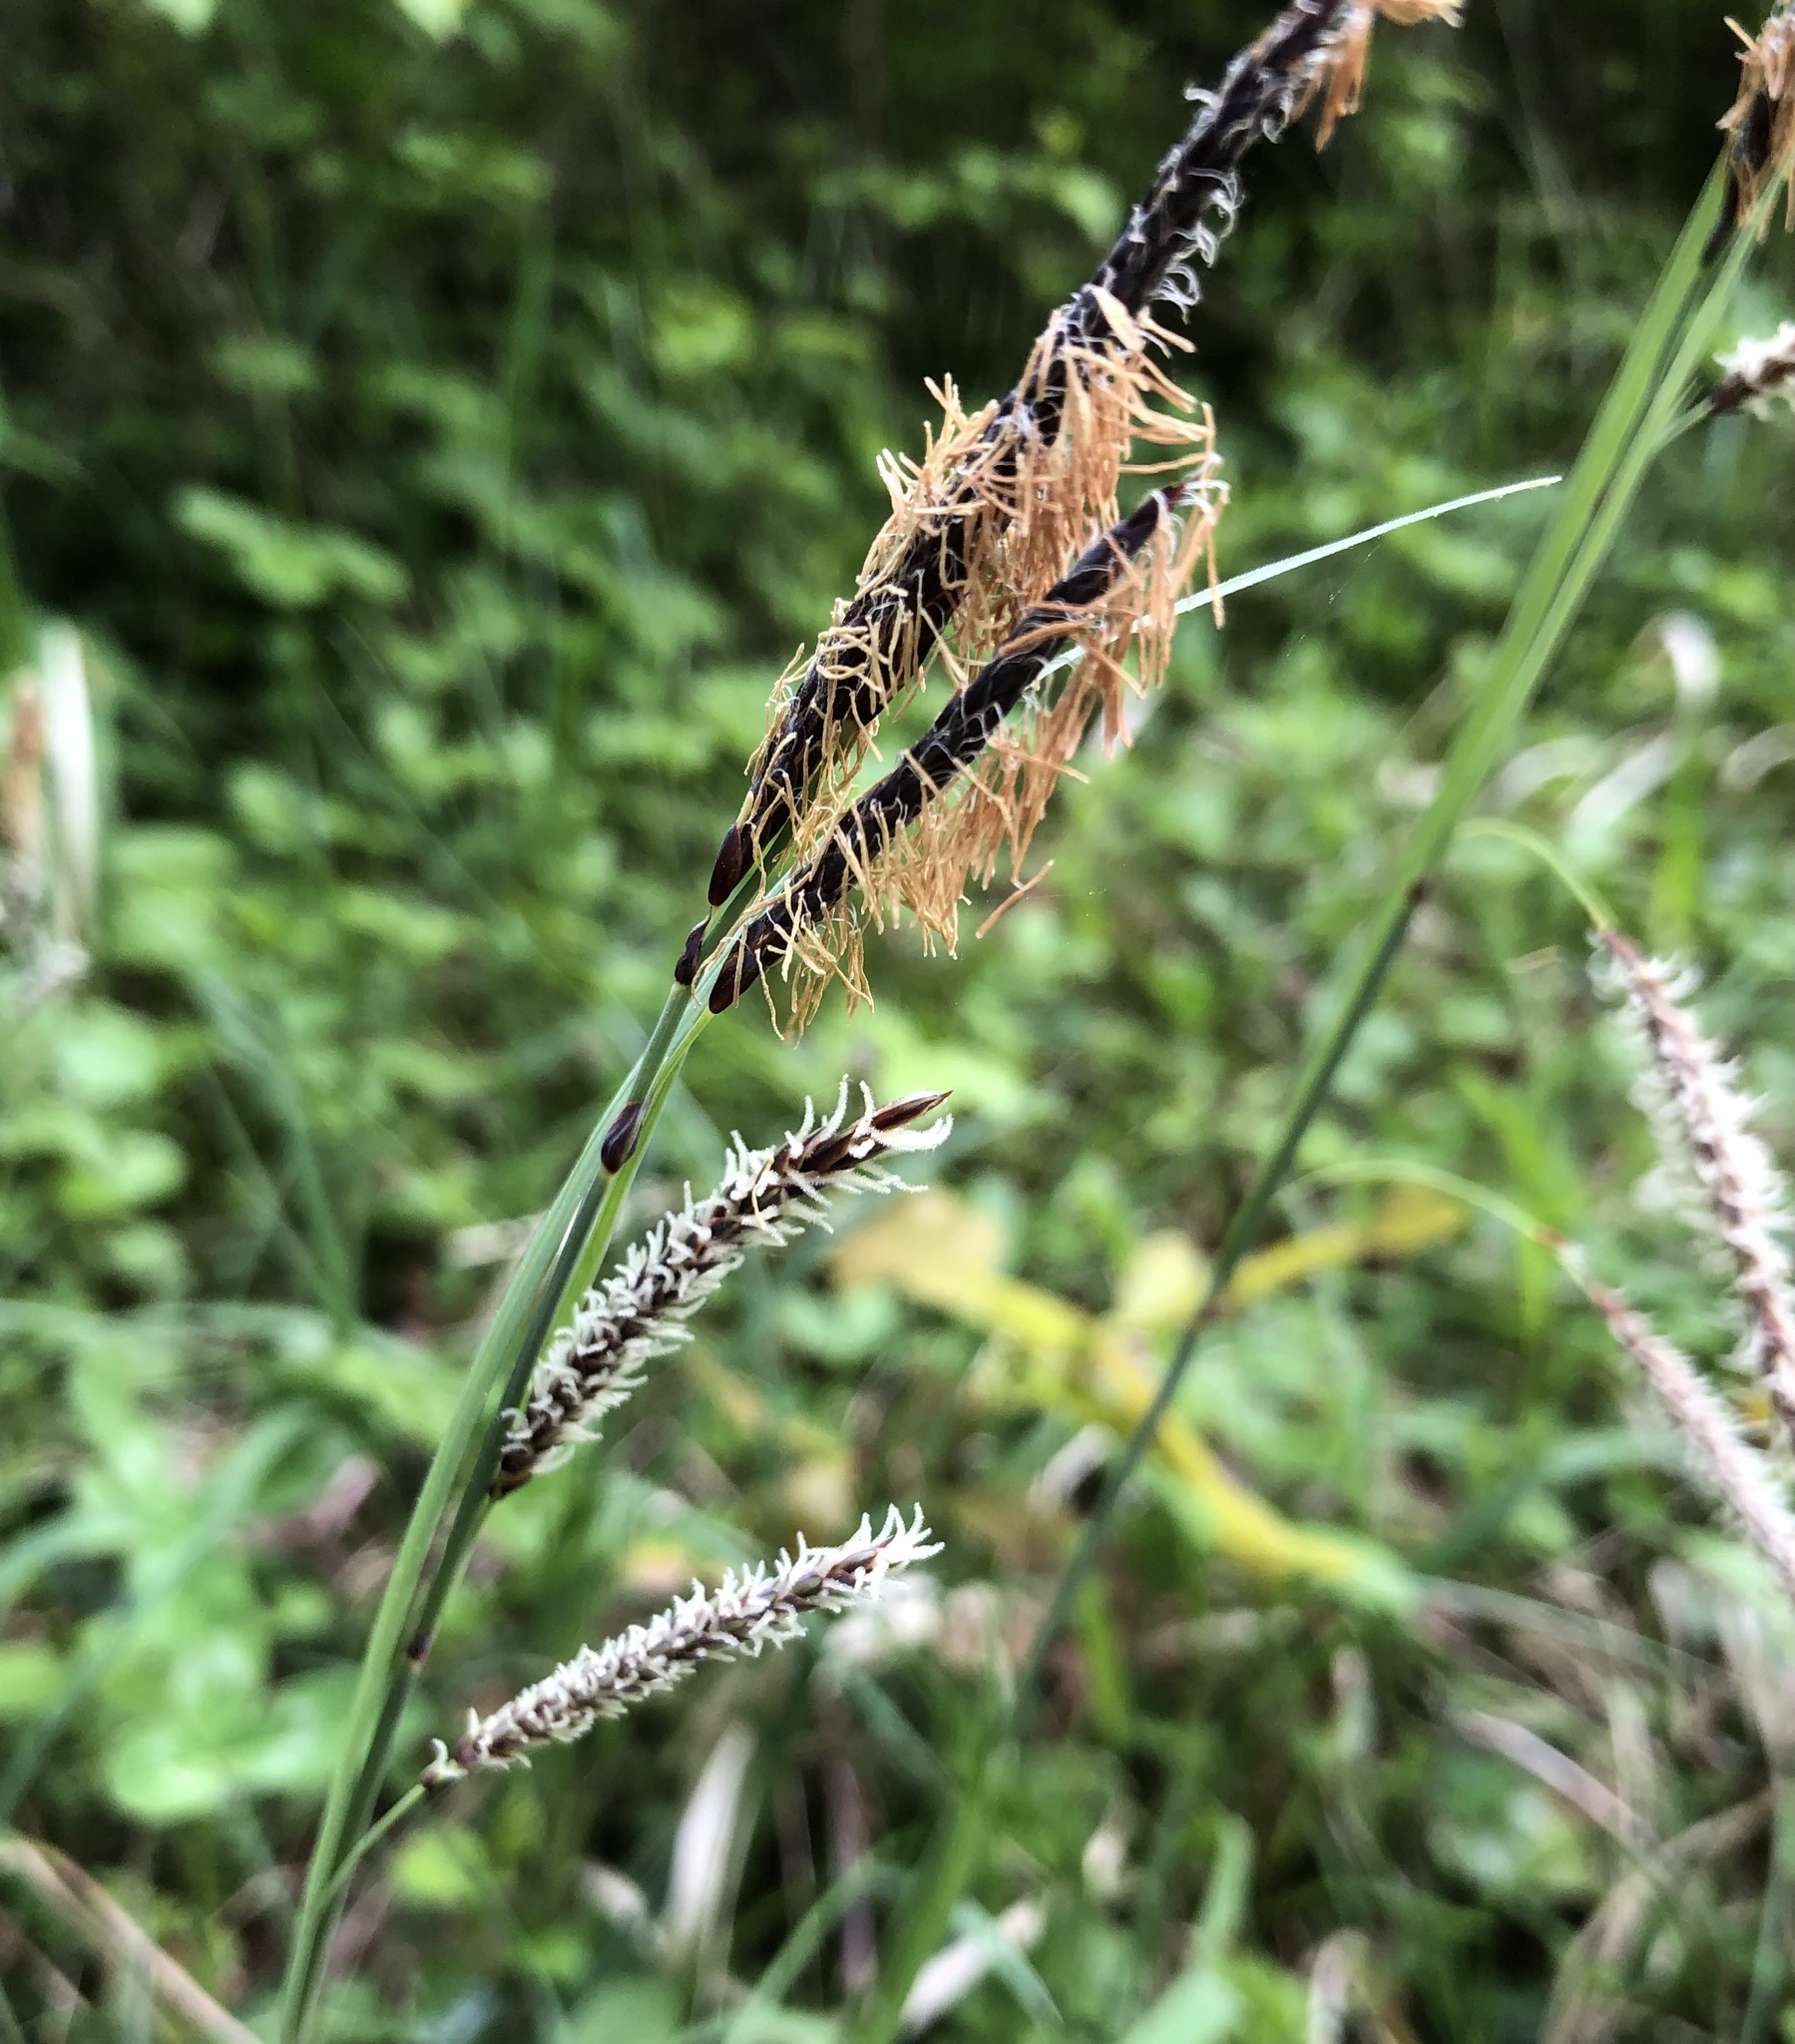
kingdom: Plantae
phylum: Tracheophyta
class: Liliopsida
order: Poales
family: Cyperaceae
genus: Carex
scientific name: Carex flacca
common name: Glaucous sedge
